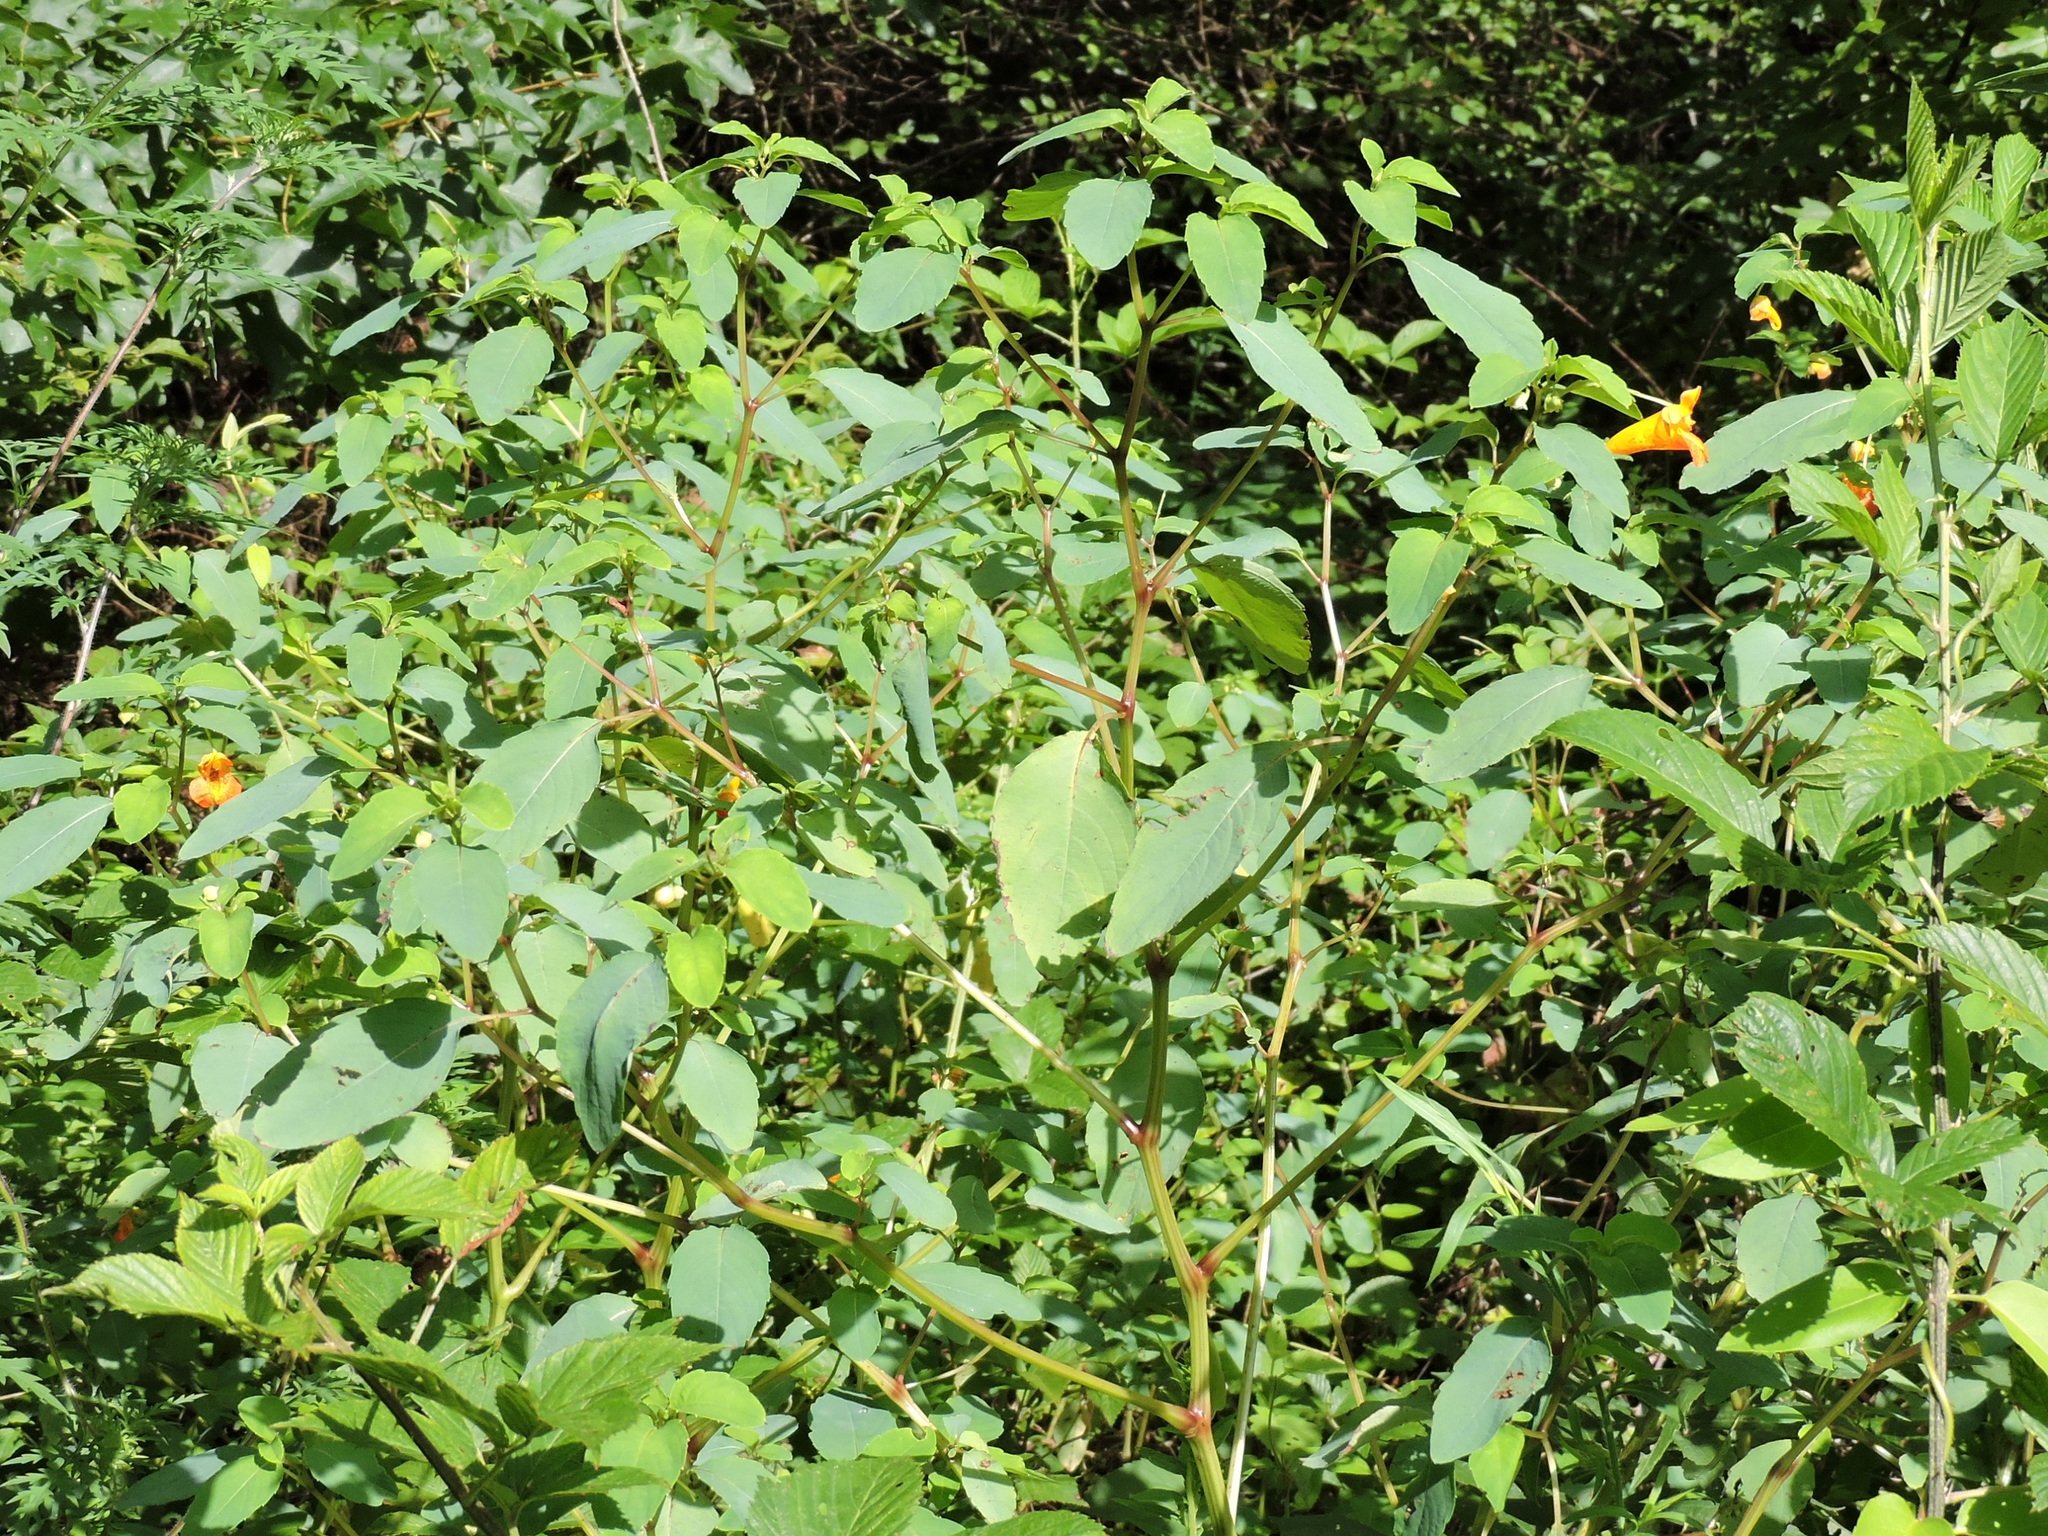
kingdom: Plantae
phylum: Tracheophyta
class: Magnoliopsida
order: Ericales
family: Balsaminaceae
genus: Impatiens
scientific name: Impatiens capensis
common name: Orange balsam
